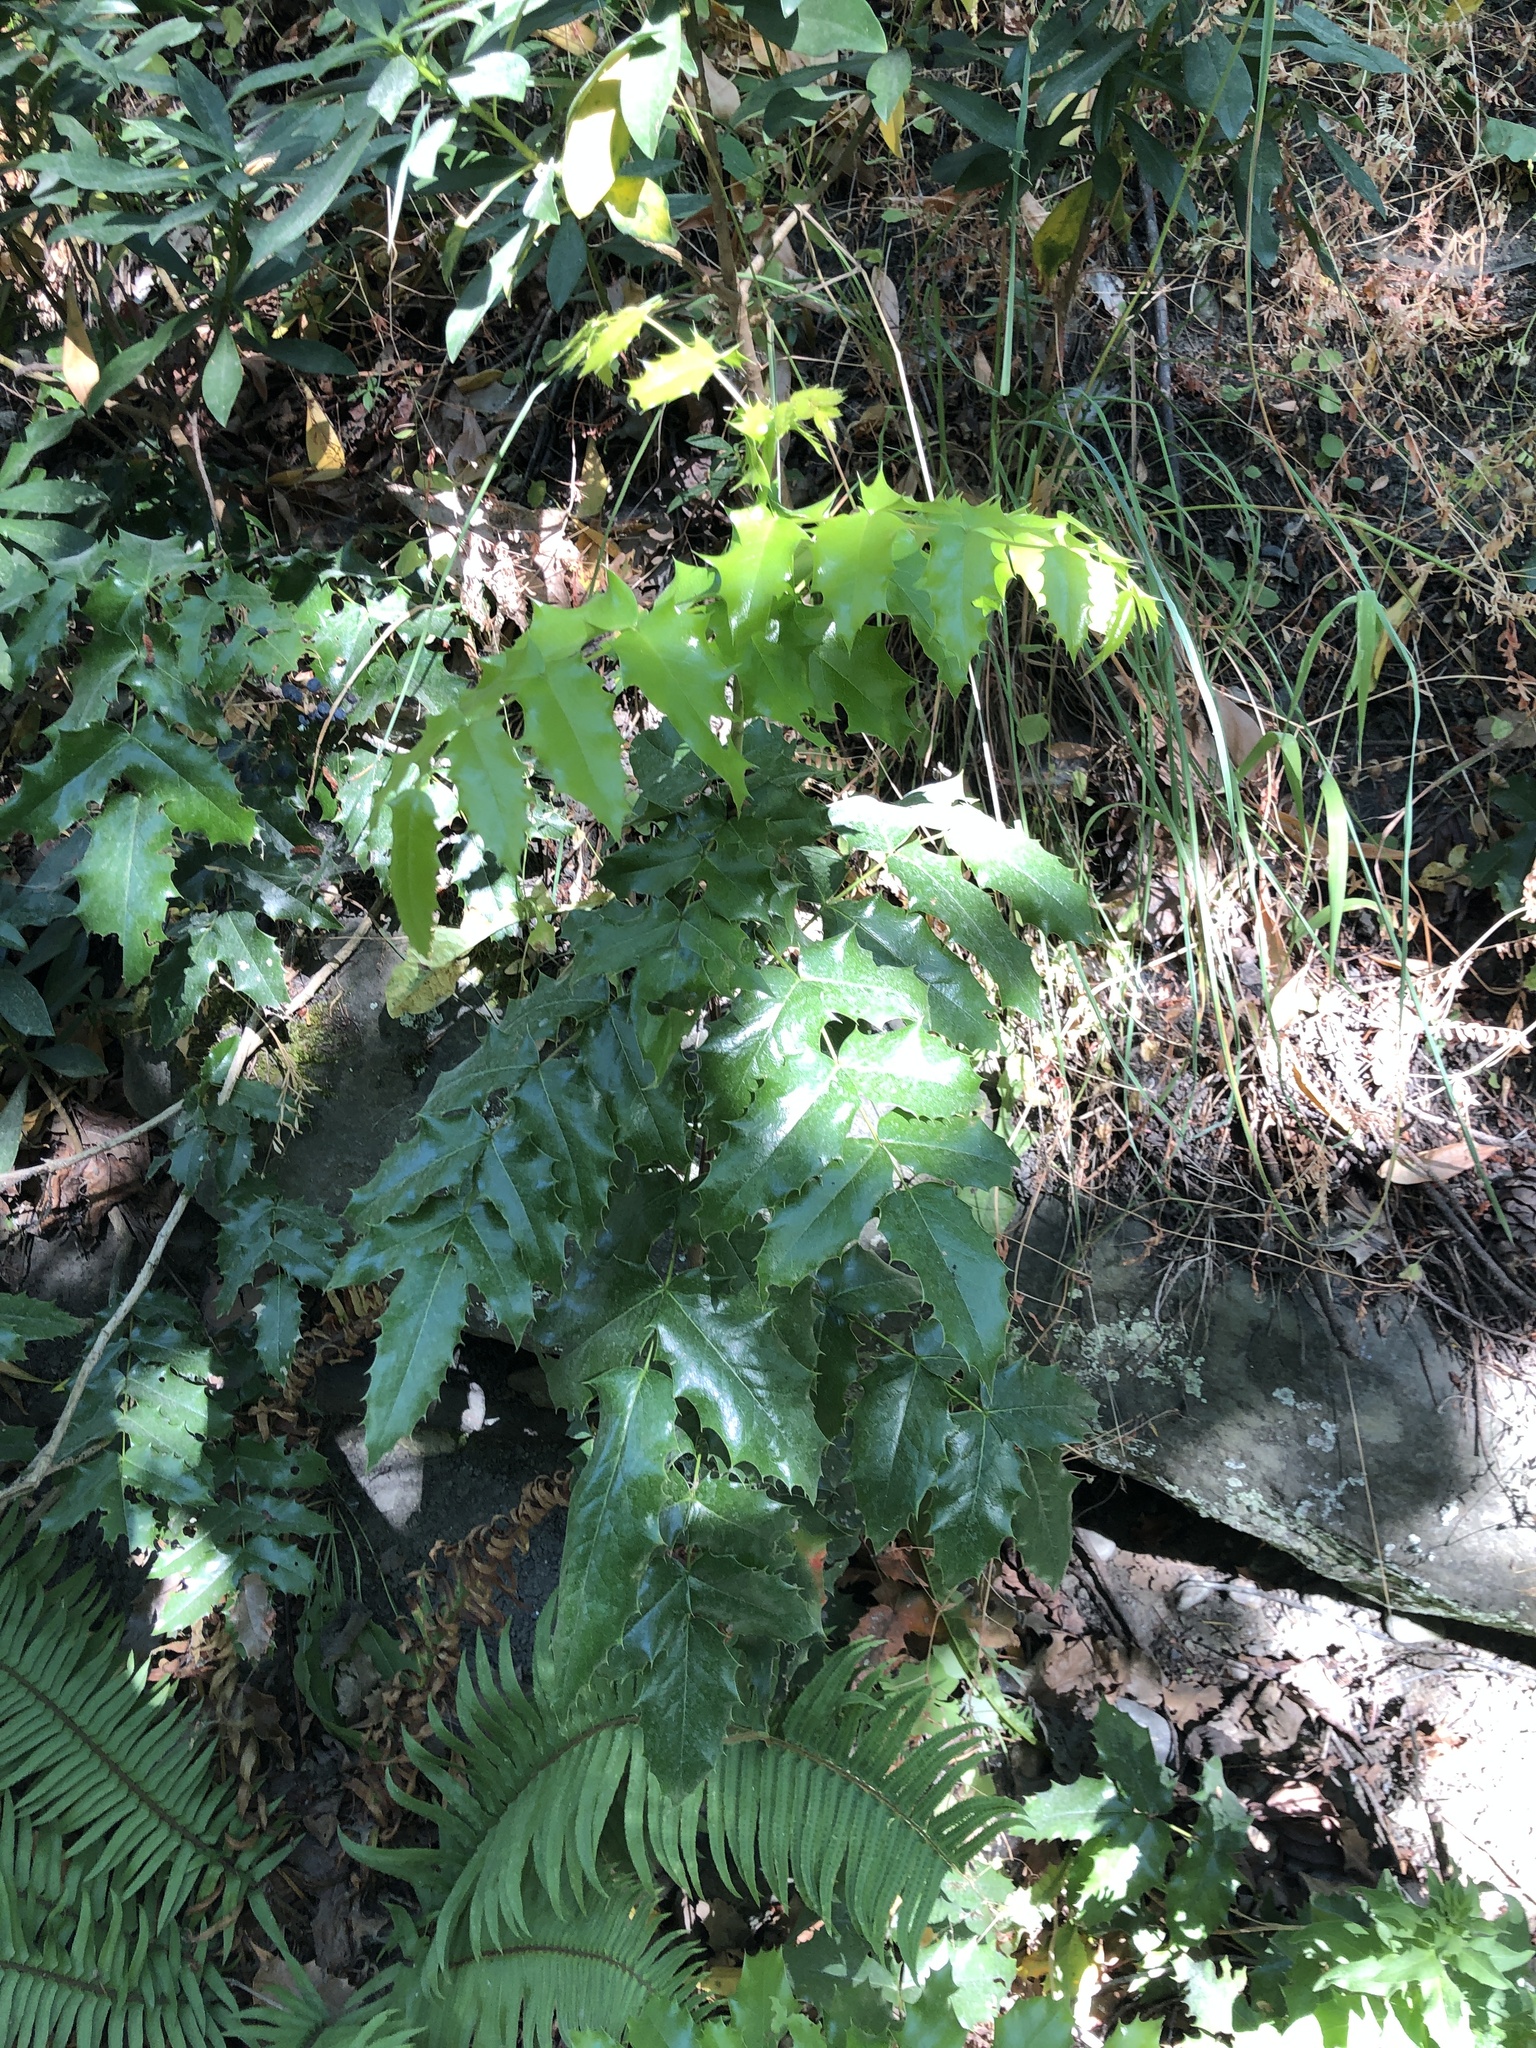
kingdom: Plantae
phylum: Tracheophyta
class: Magnoliopsida
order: Ranunculales
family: Berberidaceae
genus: Mahonia
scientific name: Mahonia aquifolium
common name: Oregon-grape
